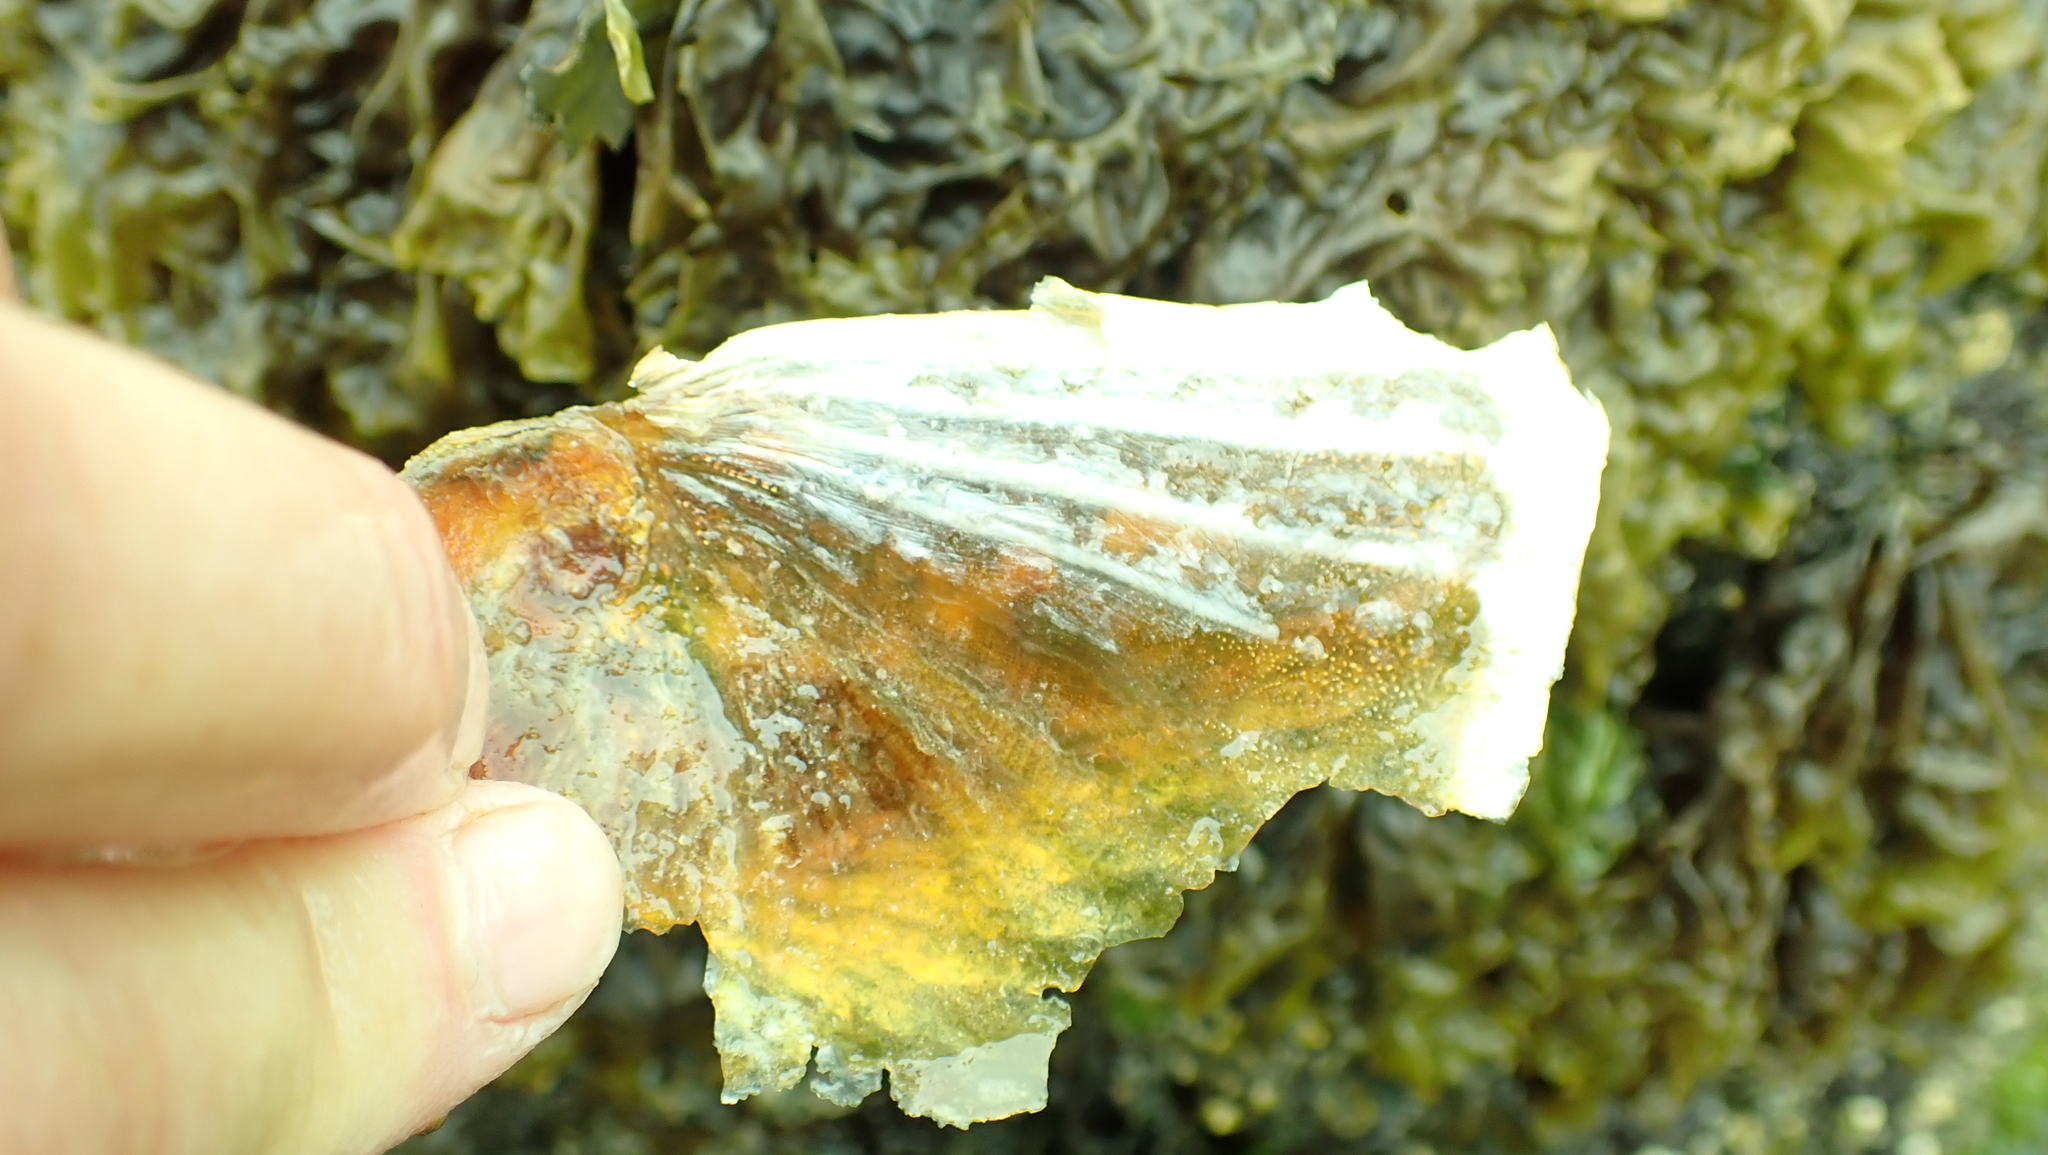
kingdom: Animalia
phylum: Mollusca
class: Gastropoda
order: Littorinimorpha
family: Naticidae
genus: Neverita
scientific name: Neverita lewisii
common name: Lewis' moonsnail
